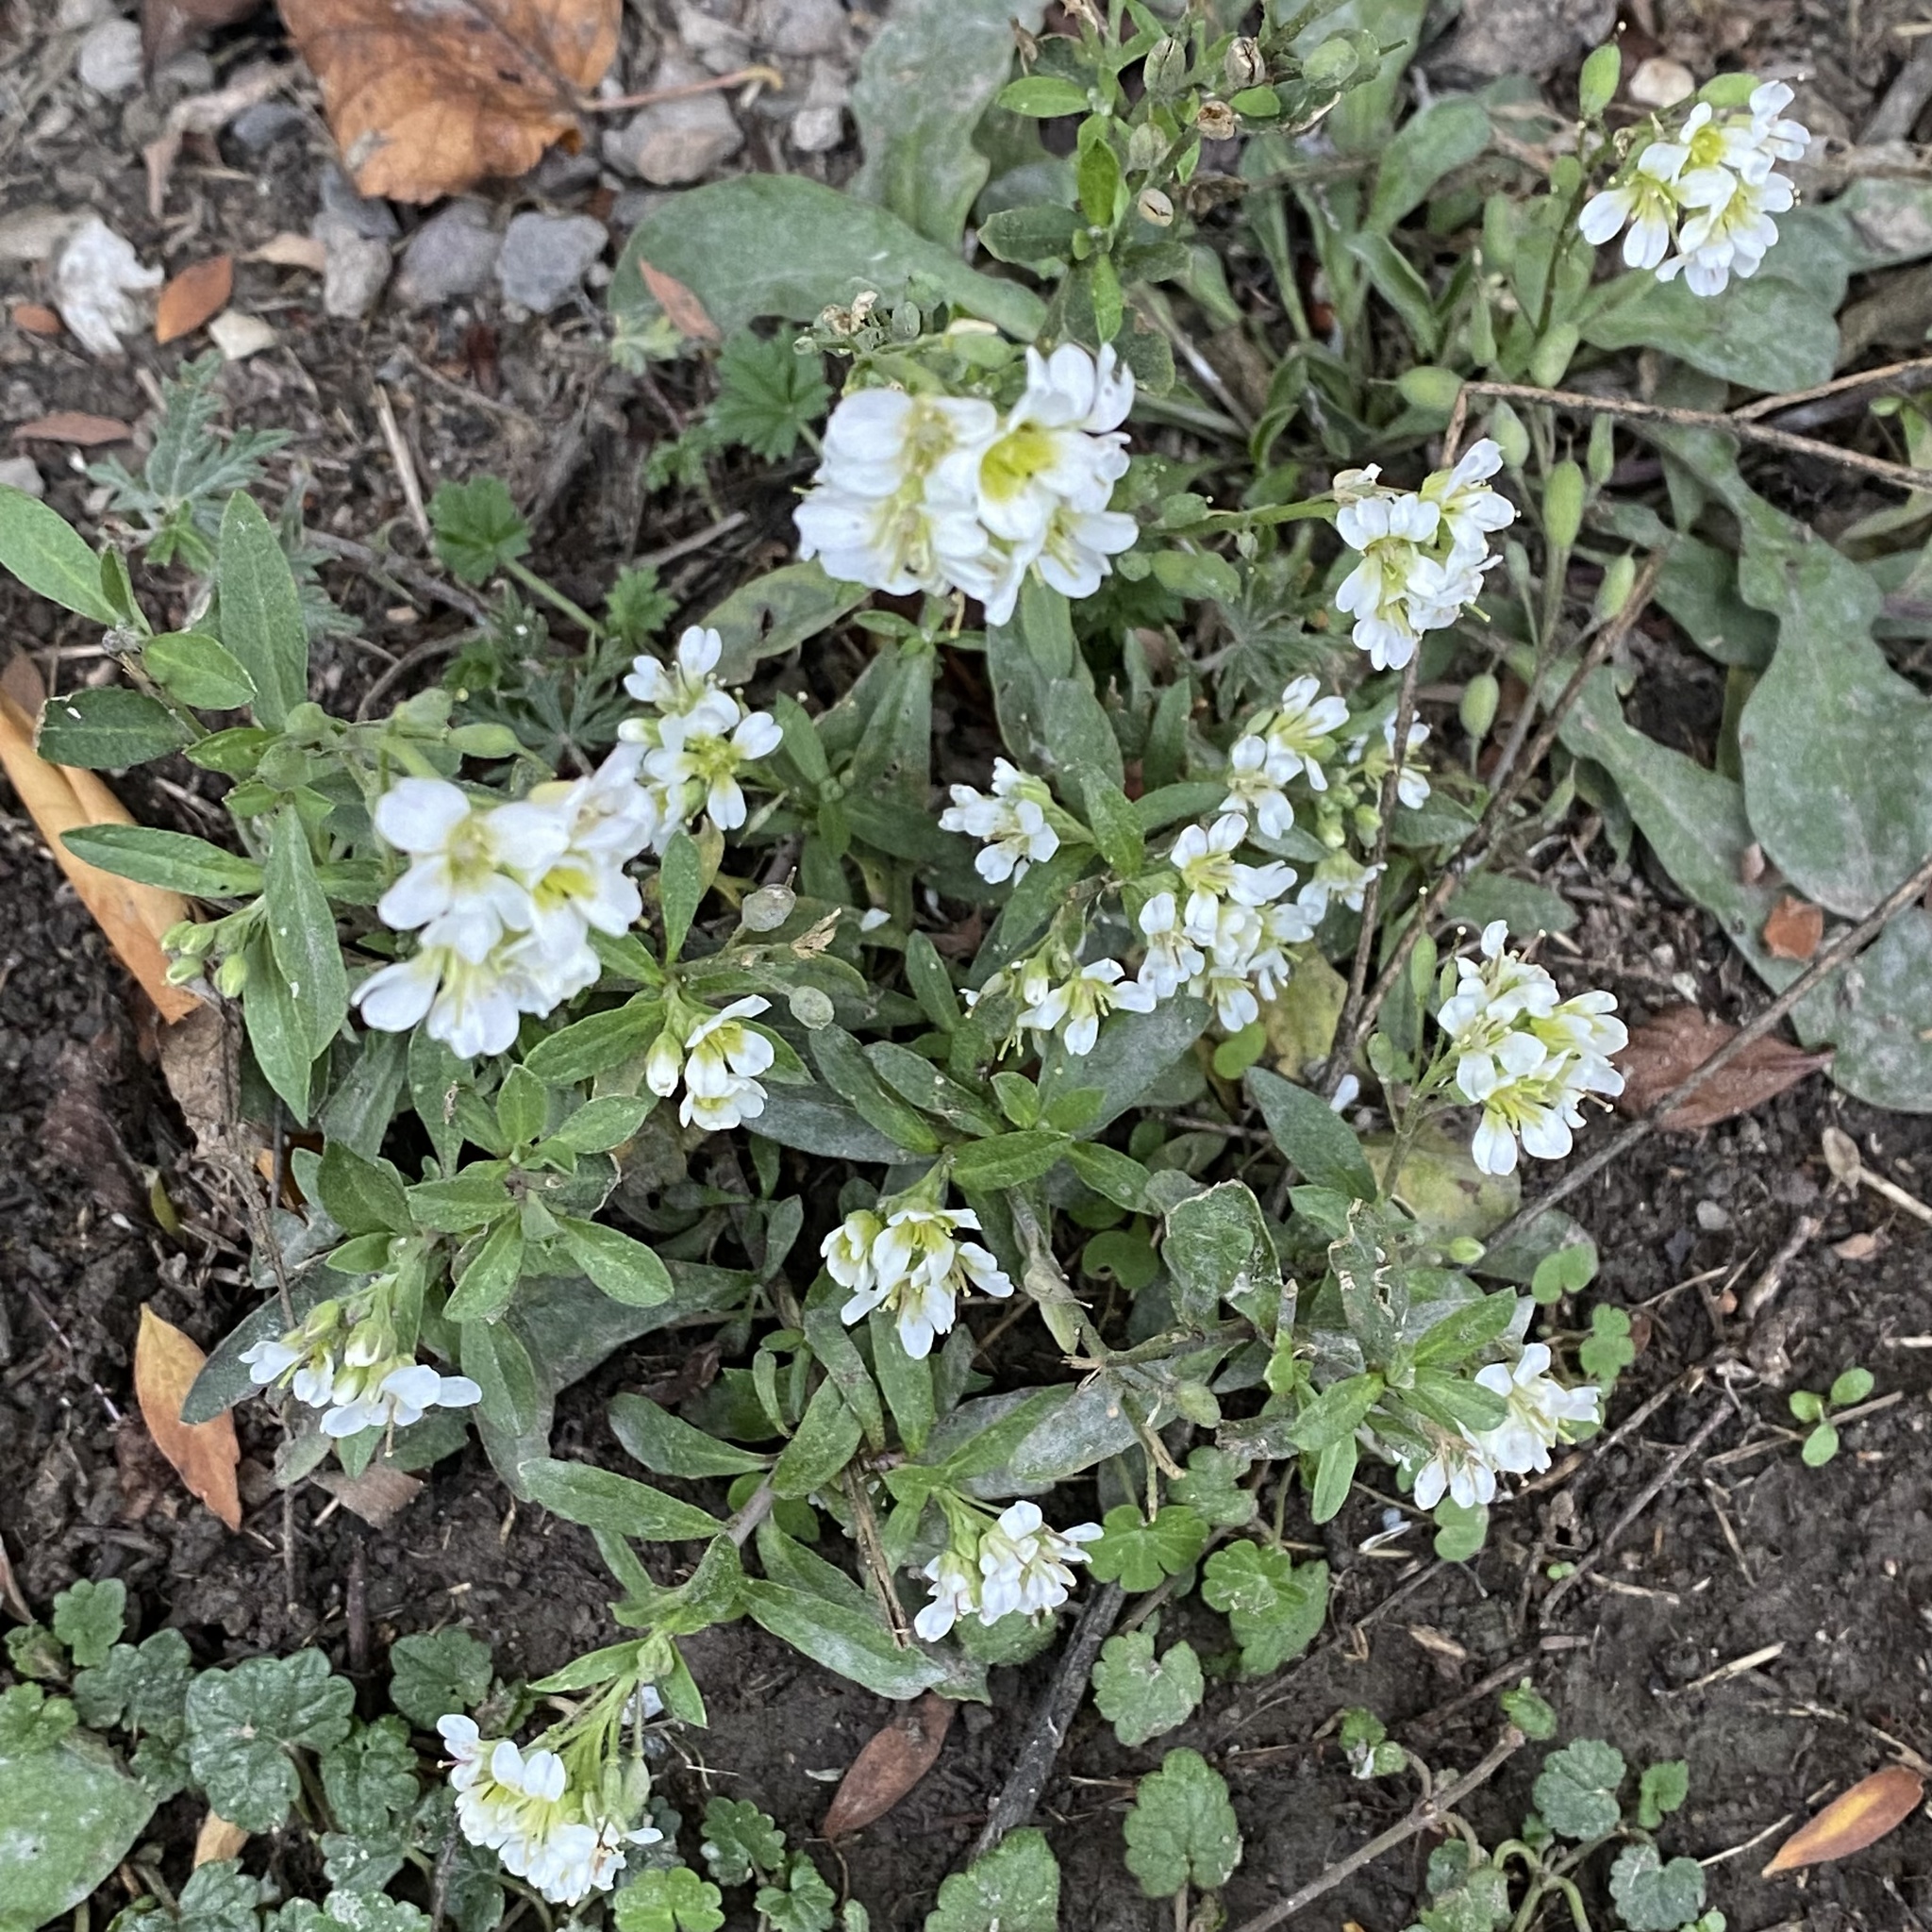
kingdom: Plantae
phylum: Tracheophyta
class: Magnoliopsida
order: Brassicales
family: Brassicaceae
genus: Berteroa
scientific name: Berteroa incana
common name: Hoary alison
